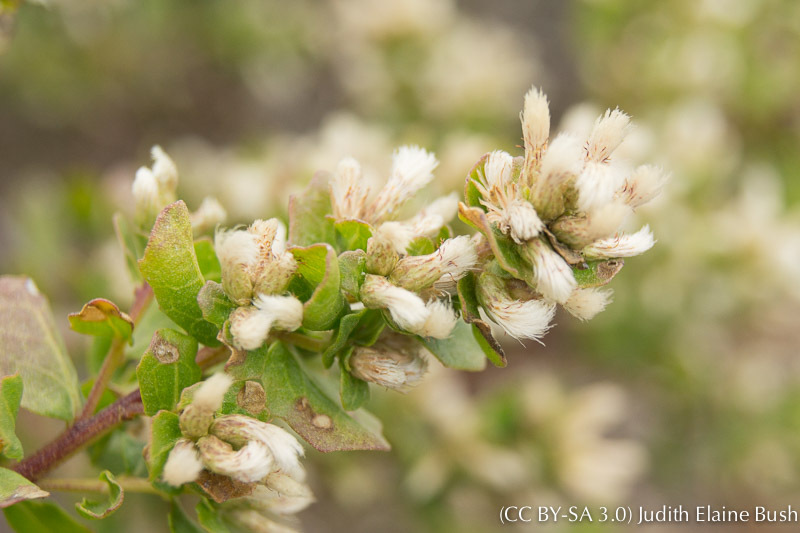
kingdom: Plantae
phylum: Tracheophyta
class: Magnoliopsida
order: Asterales
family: Asteraceae
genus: Baccharis
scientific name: Baccharis pilularis
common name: Coyotebrush
